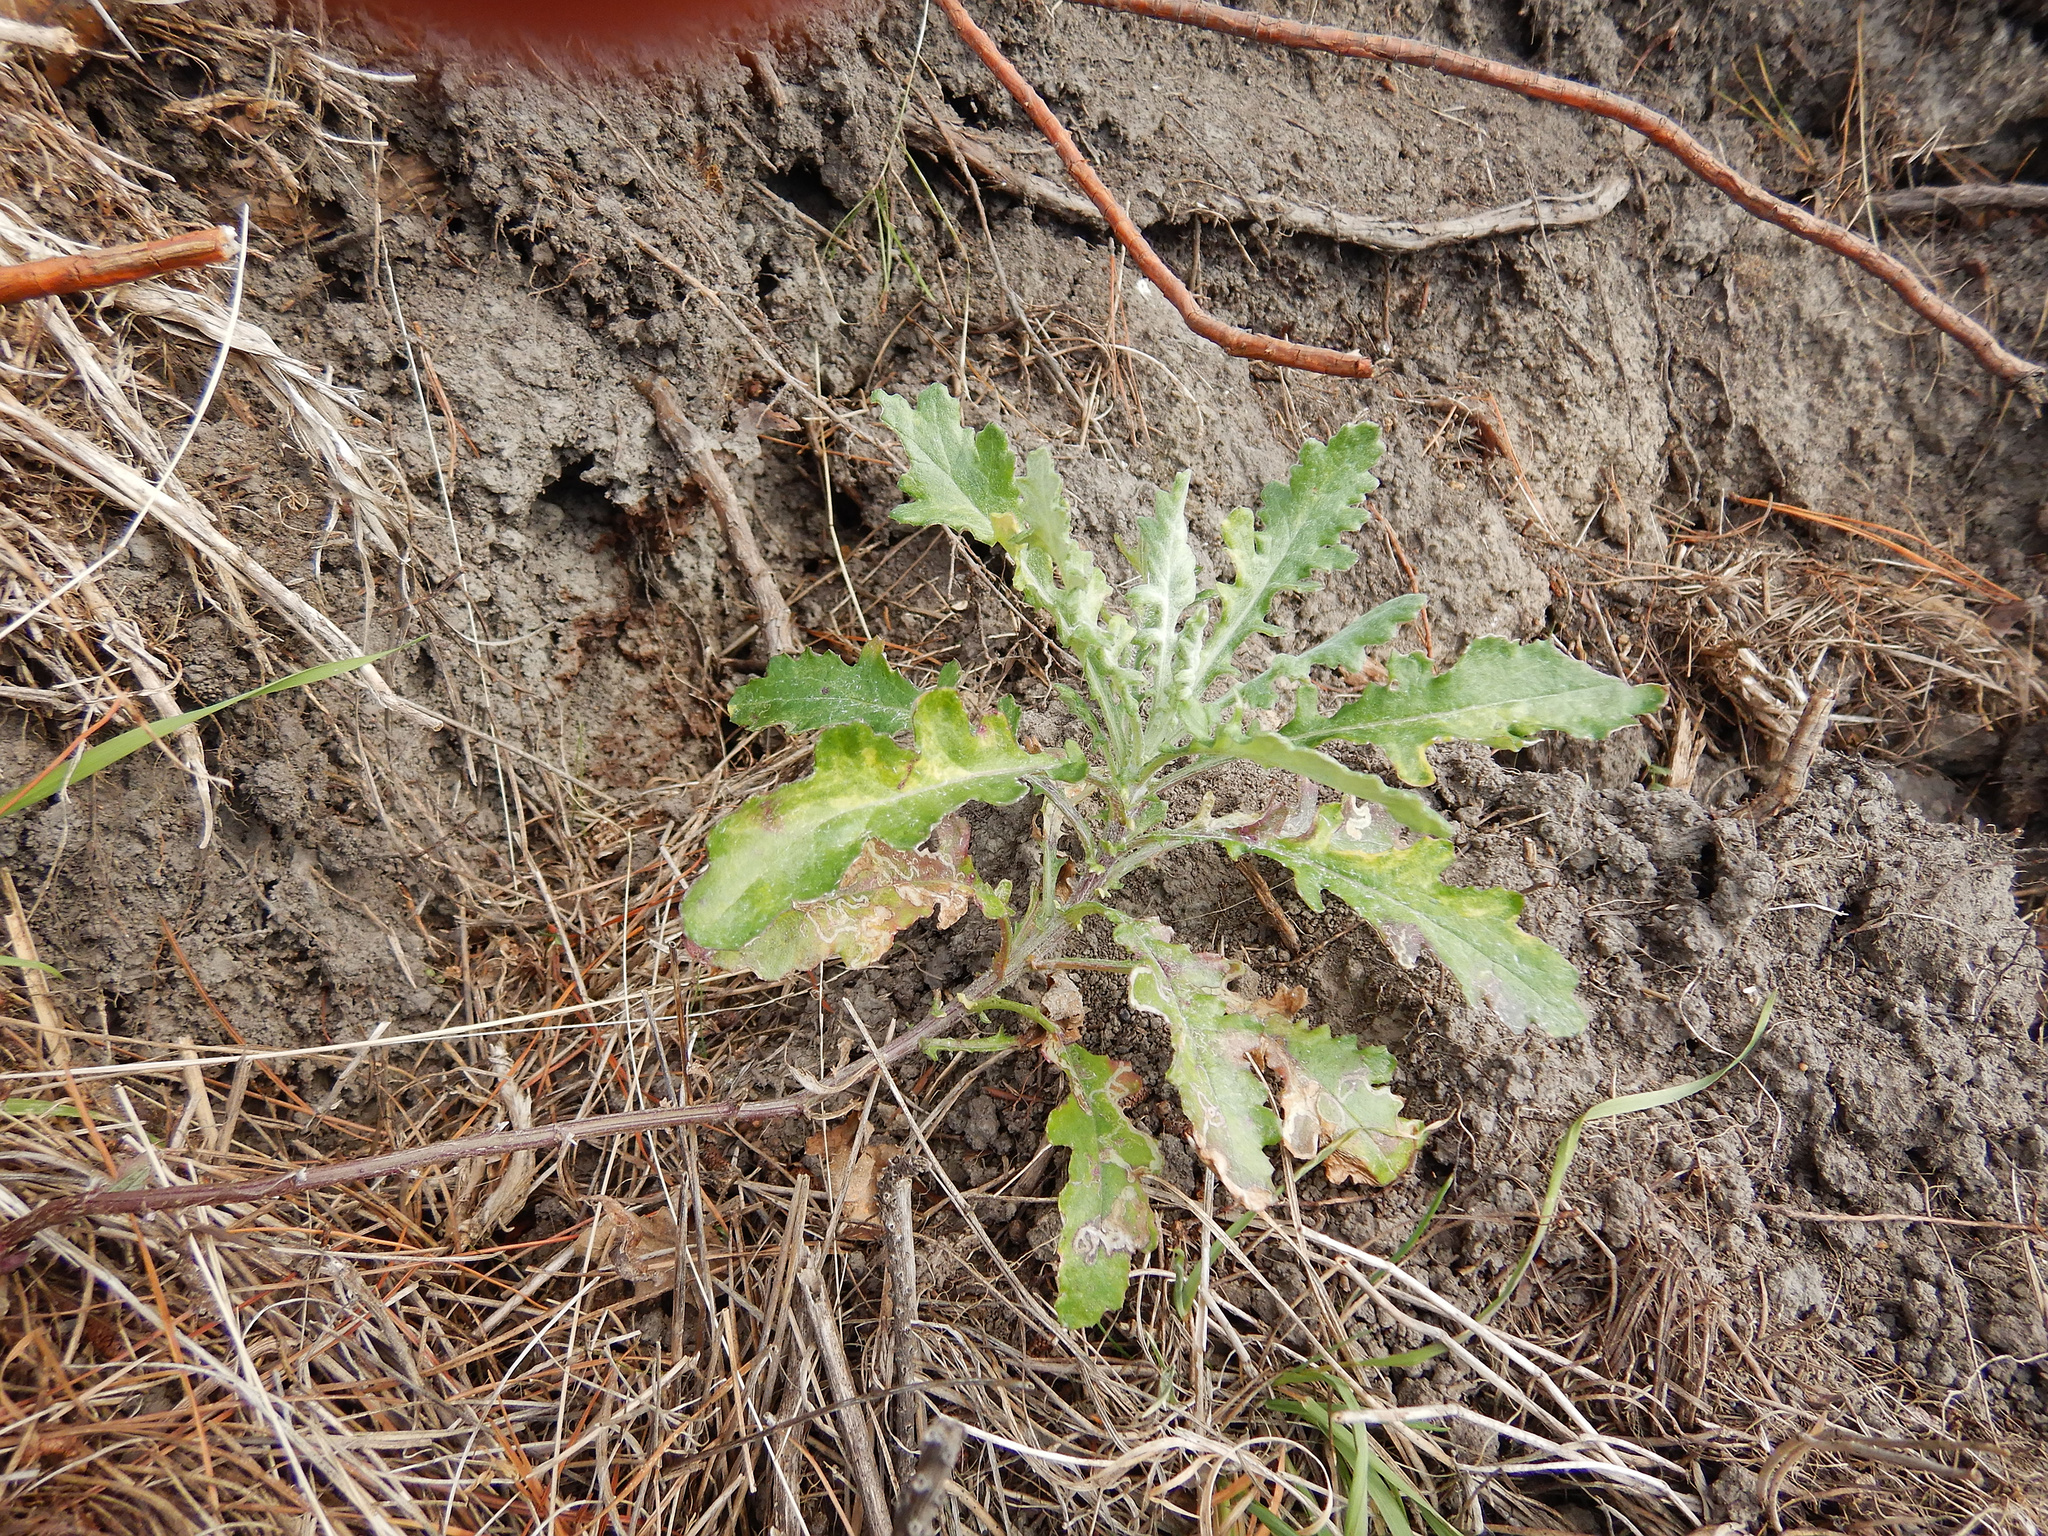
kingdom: Plantae
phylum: Tracheophyta
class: Magnoliopsida
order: Asterales
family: Asteraceae
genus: Senecio
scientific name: Senecio glomeratus
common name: Cutleaf burnweed
